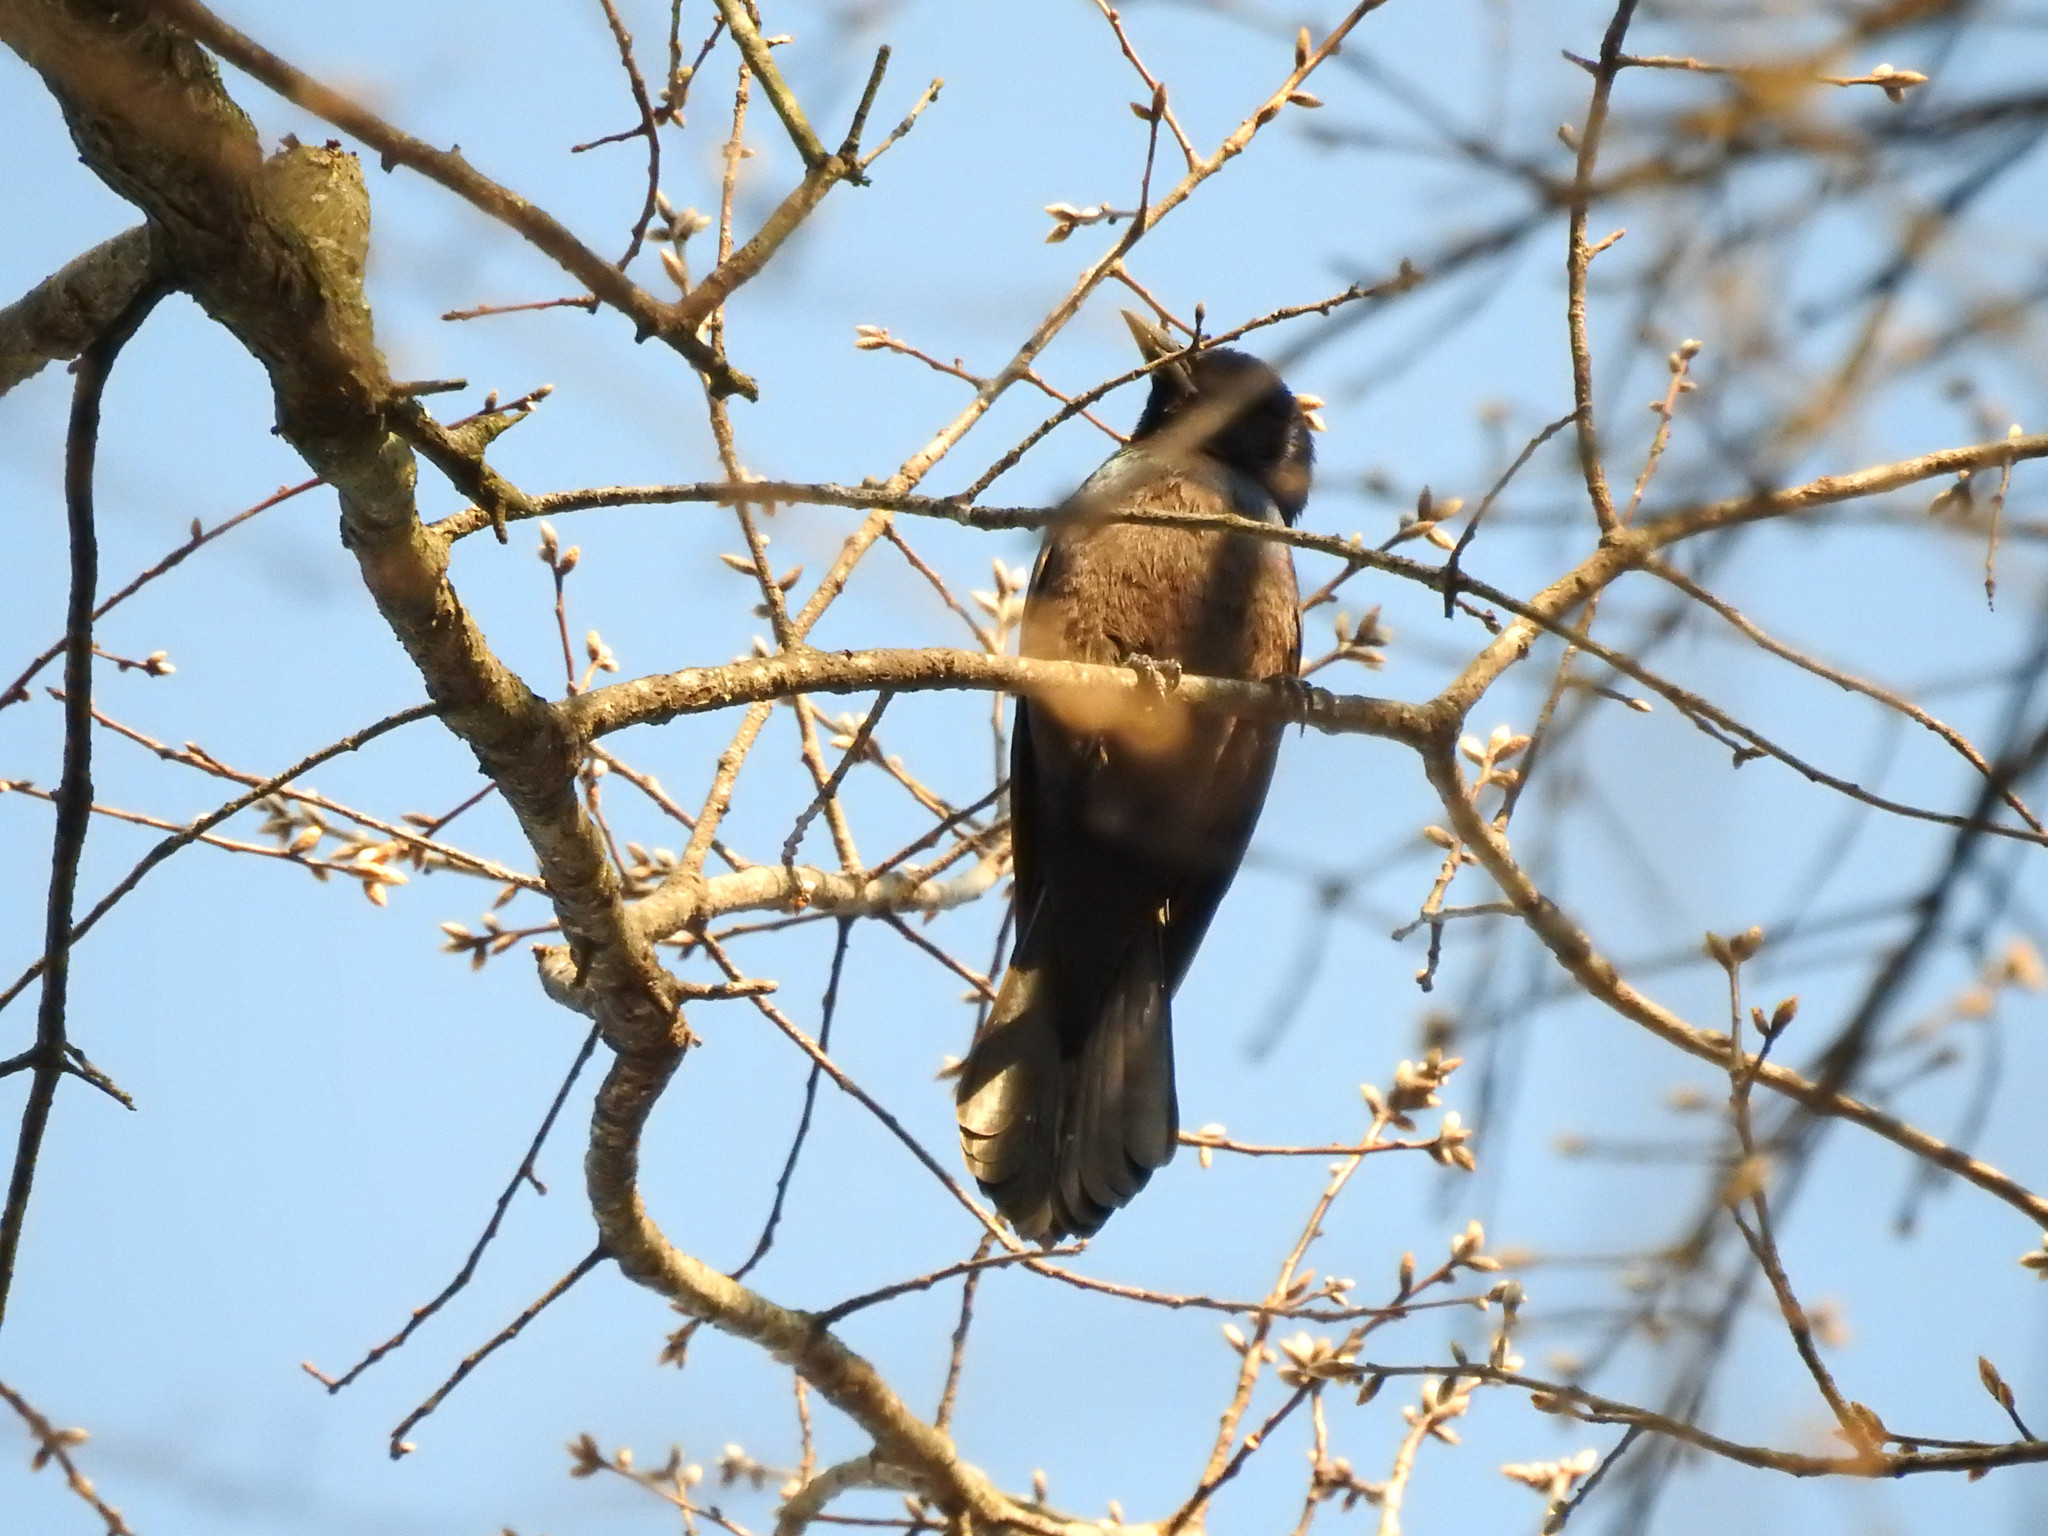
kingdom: Animalia
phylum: Chordata
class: Aves
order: Passeriformes
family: Icteridae
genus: Euphagus
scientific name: Euphagus carolinus
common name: Rusty blackbird
